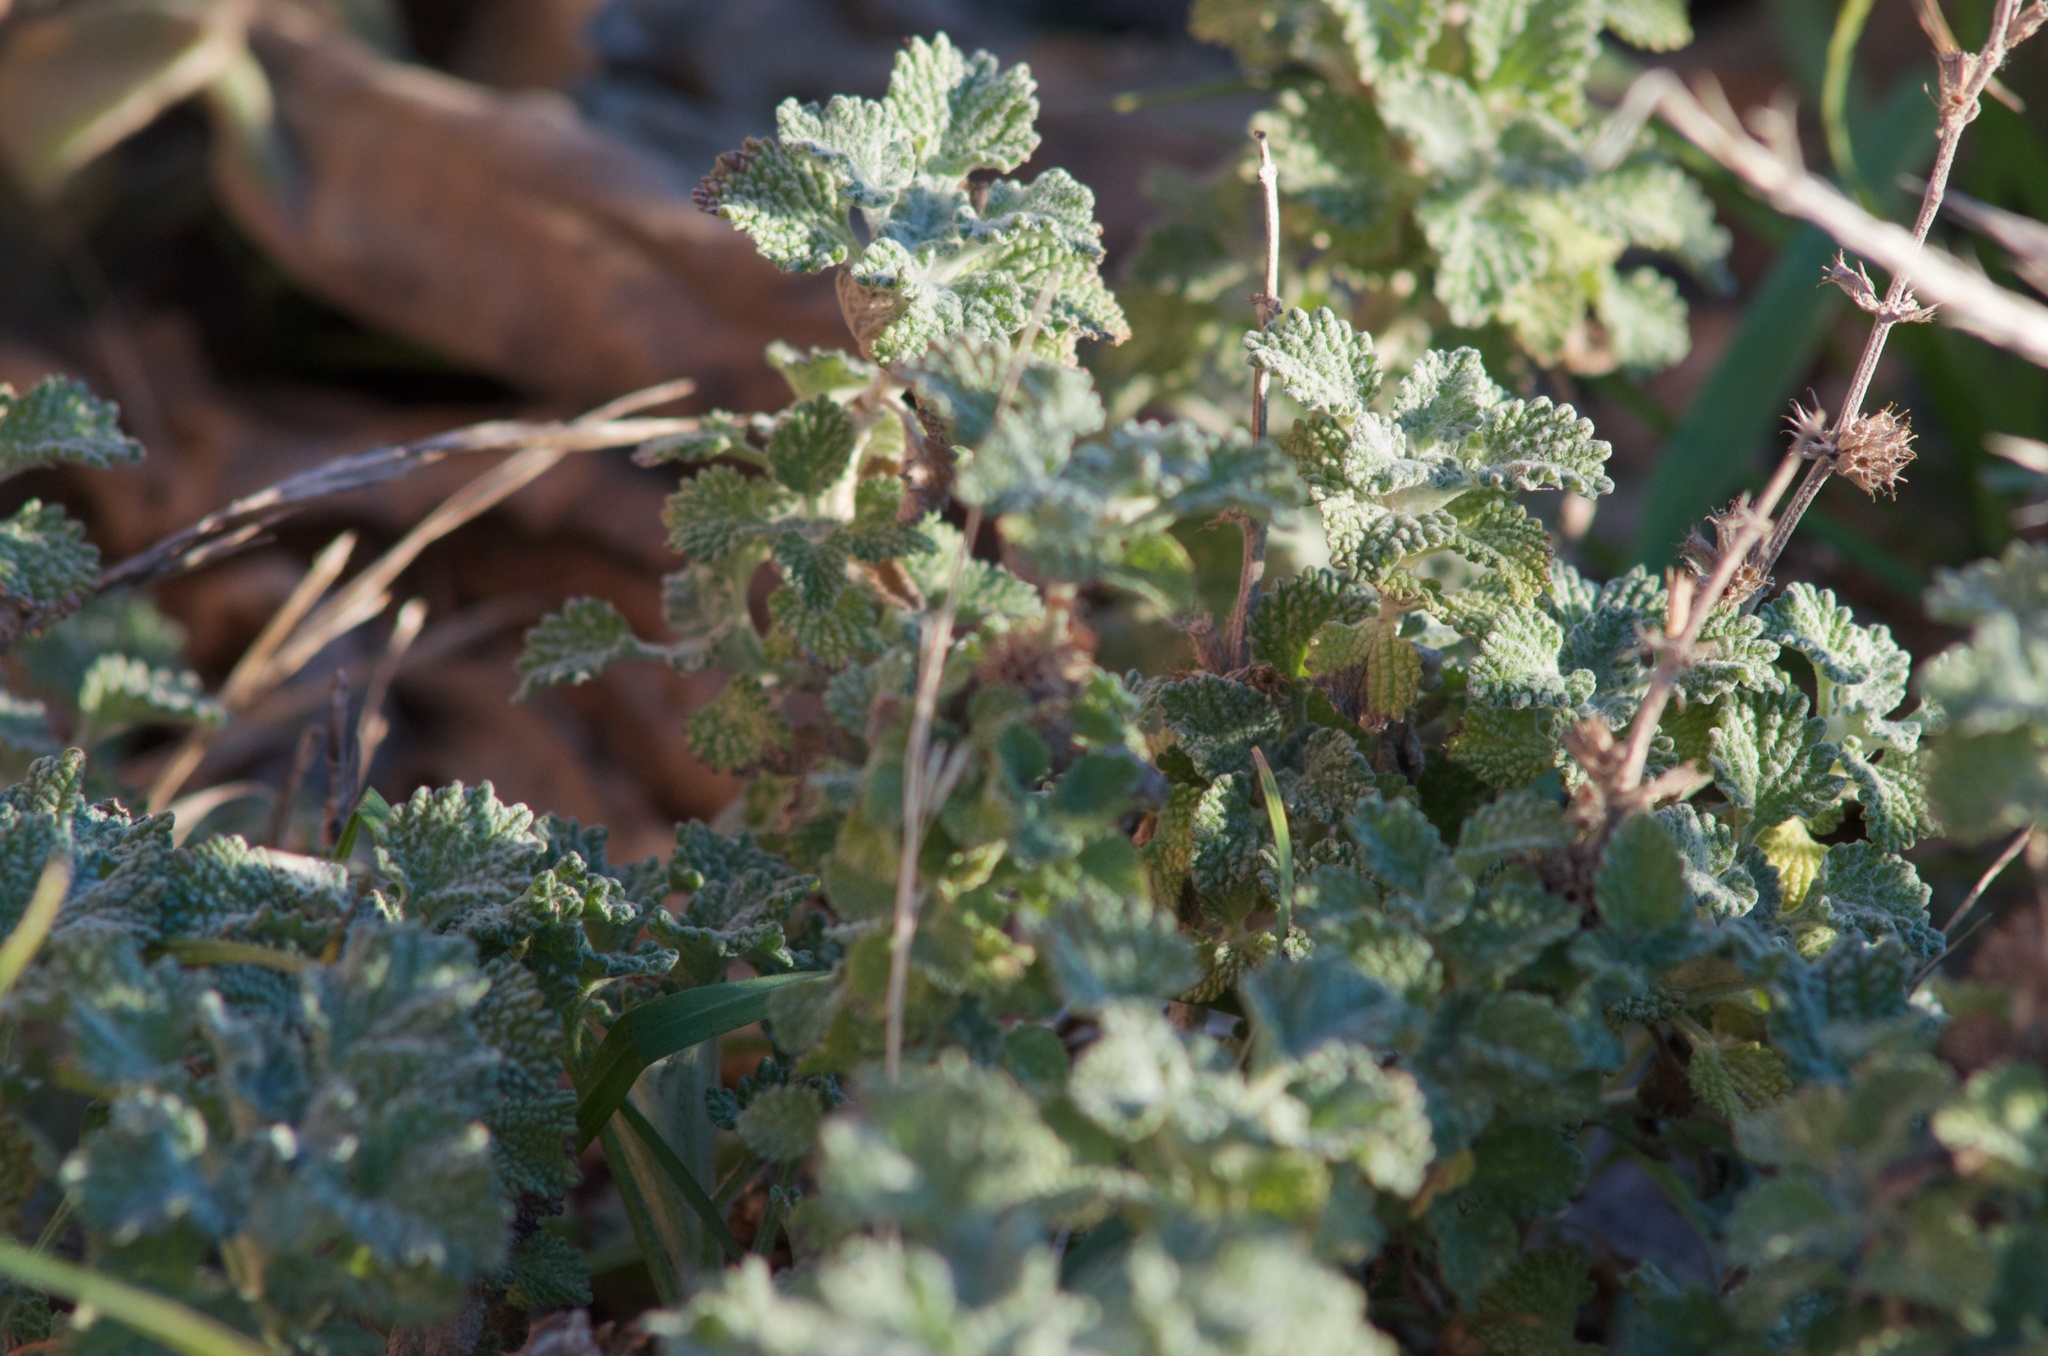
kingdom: Plantae
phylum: Tracheophyta
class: Magnoliopsida
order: Lamiales
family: Lamiaceae
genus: Marrubium
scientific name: Marrubium vulgare
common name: Horehound
